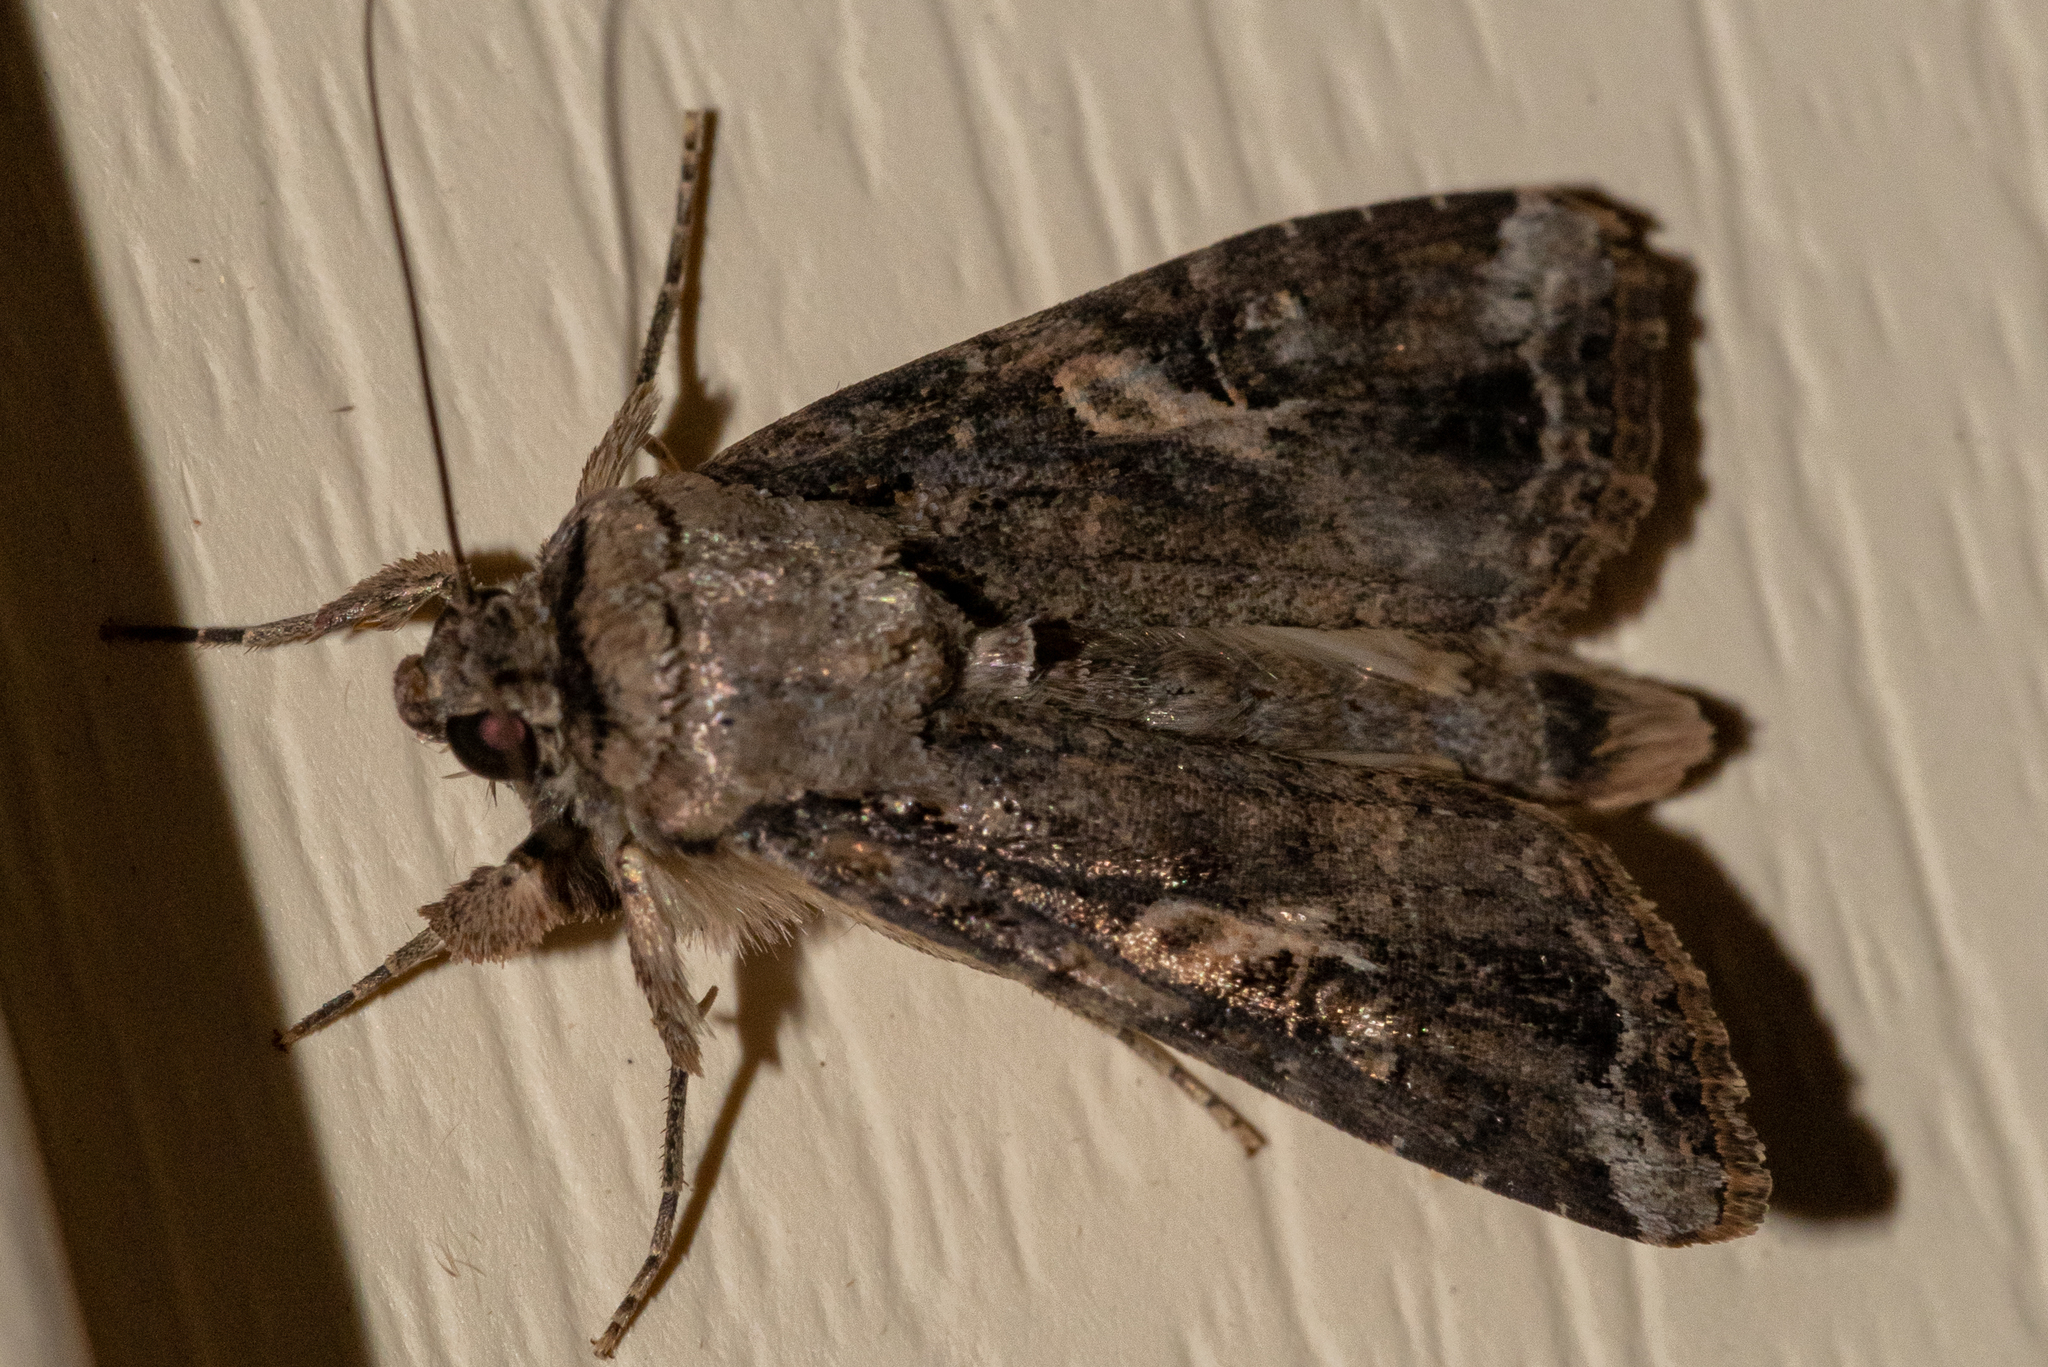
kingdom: Animalia
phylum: Arthropoda
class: Insecta
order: Lepidoptera
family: Noctuidae
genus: Spodoptera
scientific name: Spodoptera frugiperda
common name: Fall armyworm
